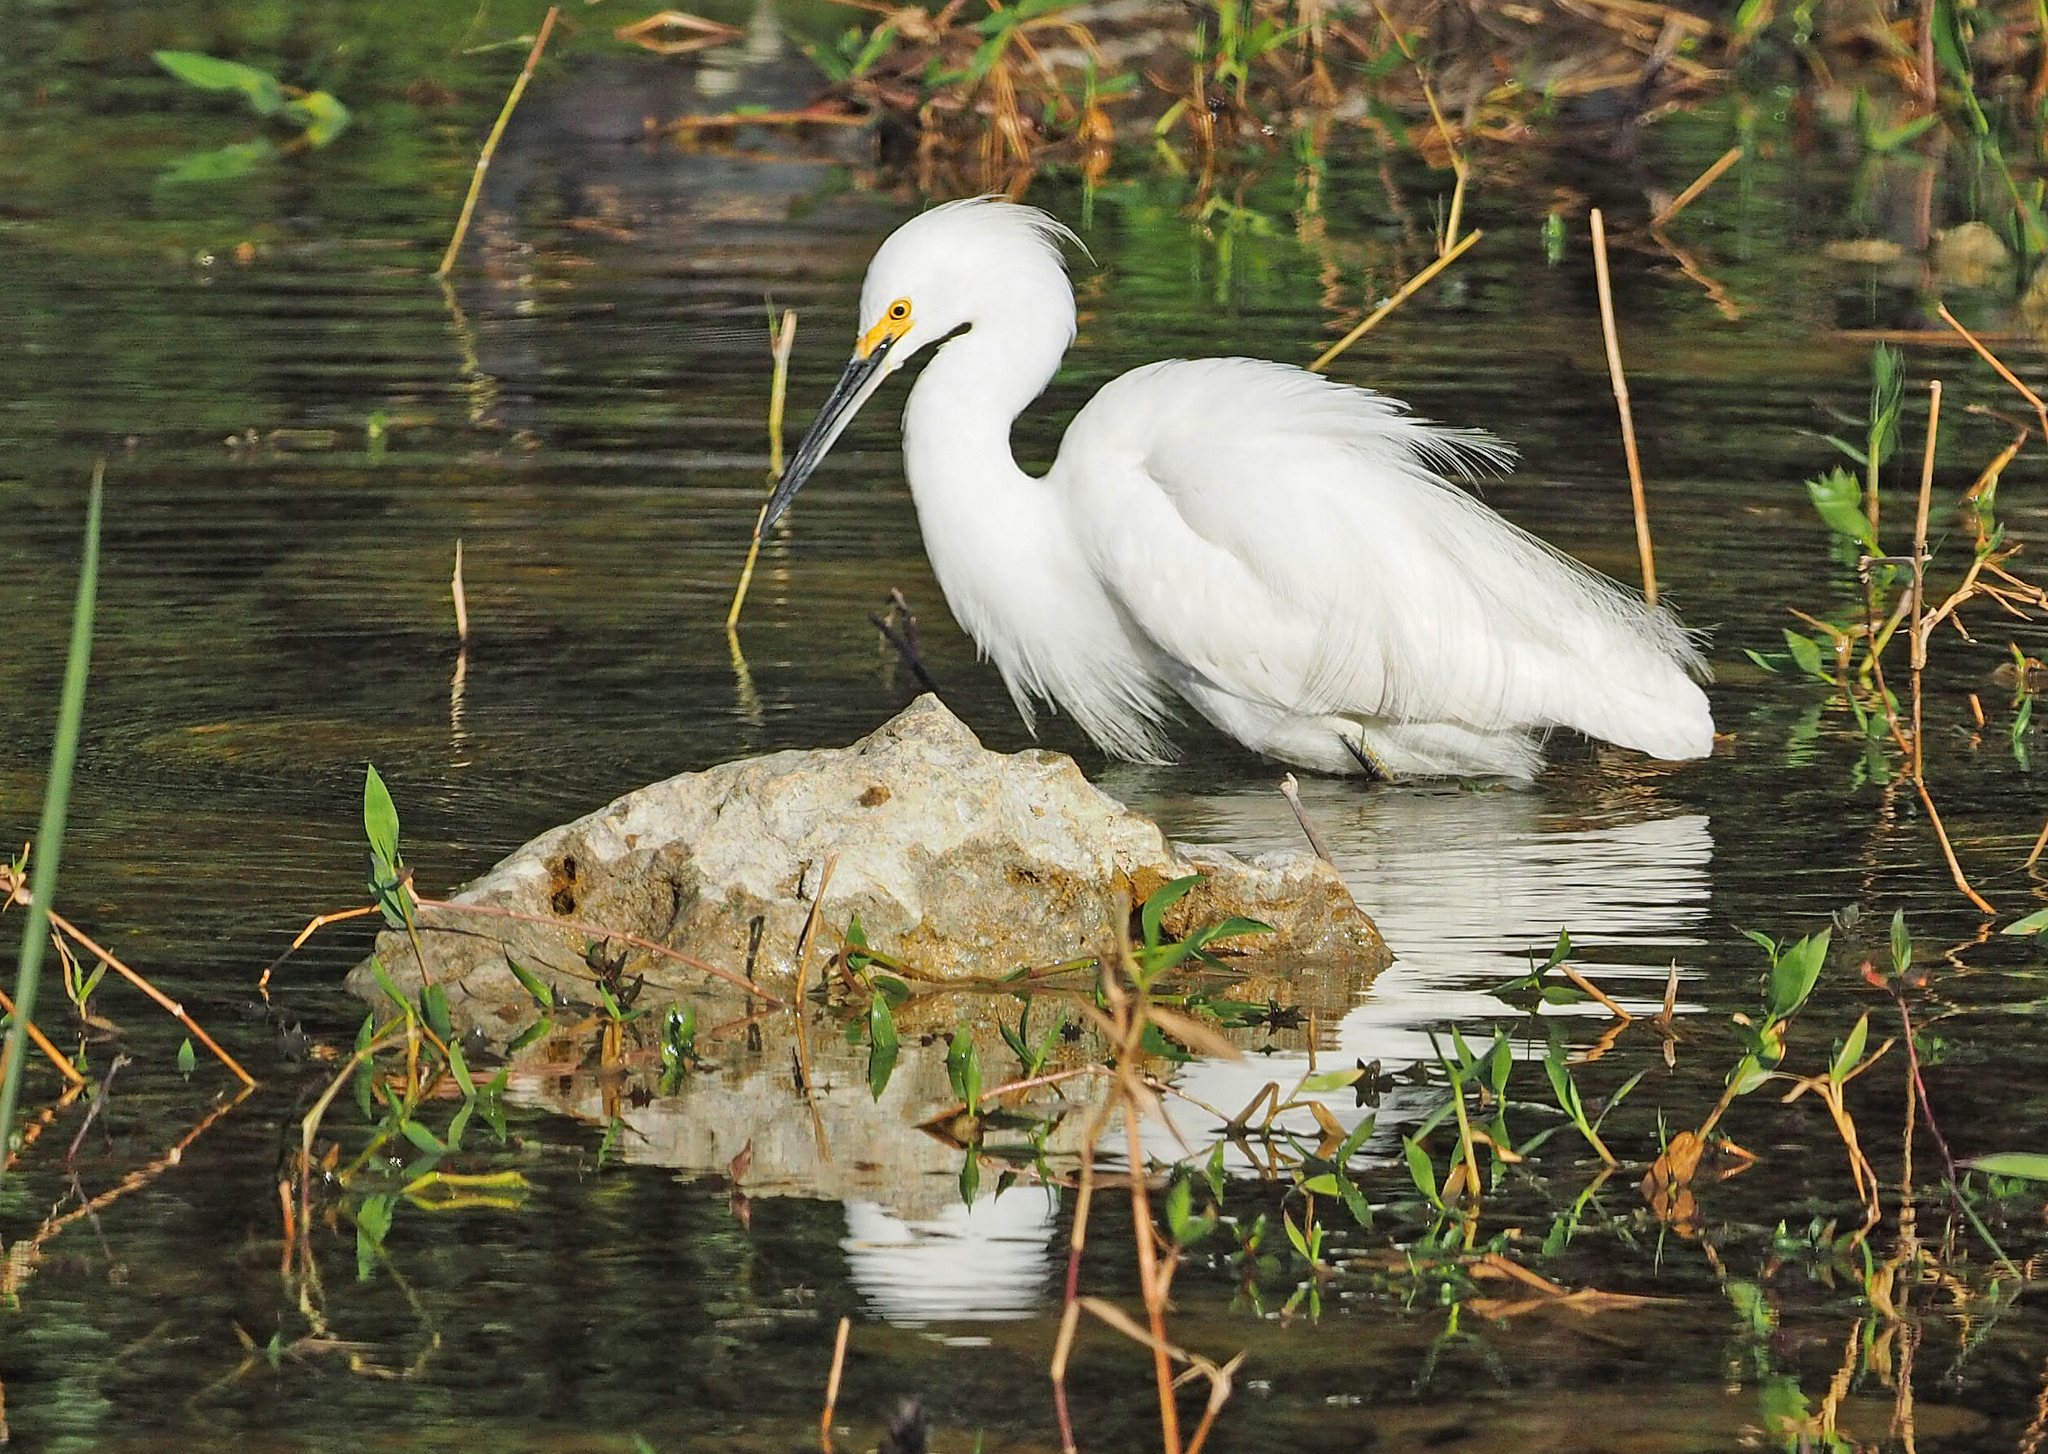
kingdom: Animalia
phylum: Chordata
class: Aves
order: Pelecaniformes
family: Ardeidae
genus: Egretta
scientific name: Egretta thula
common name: Snowy egret
